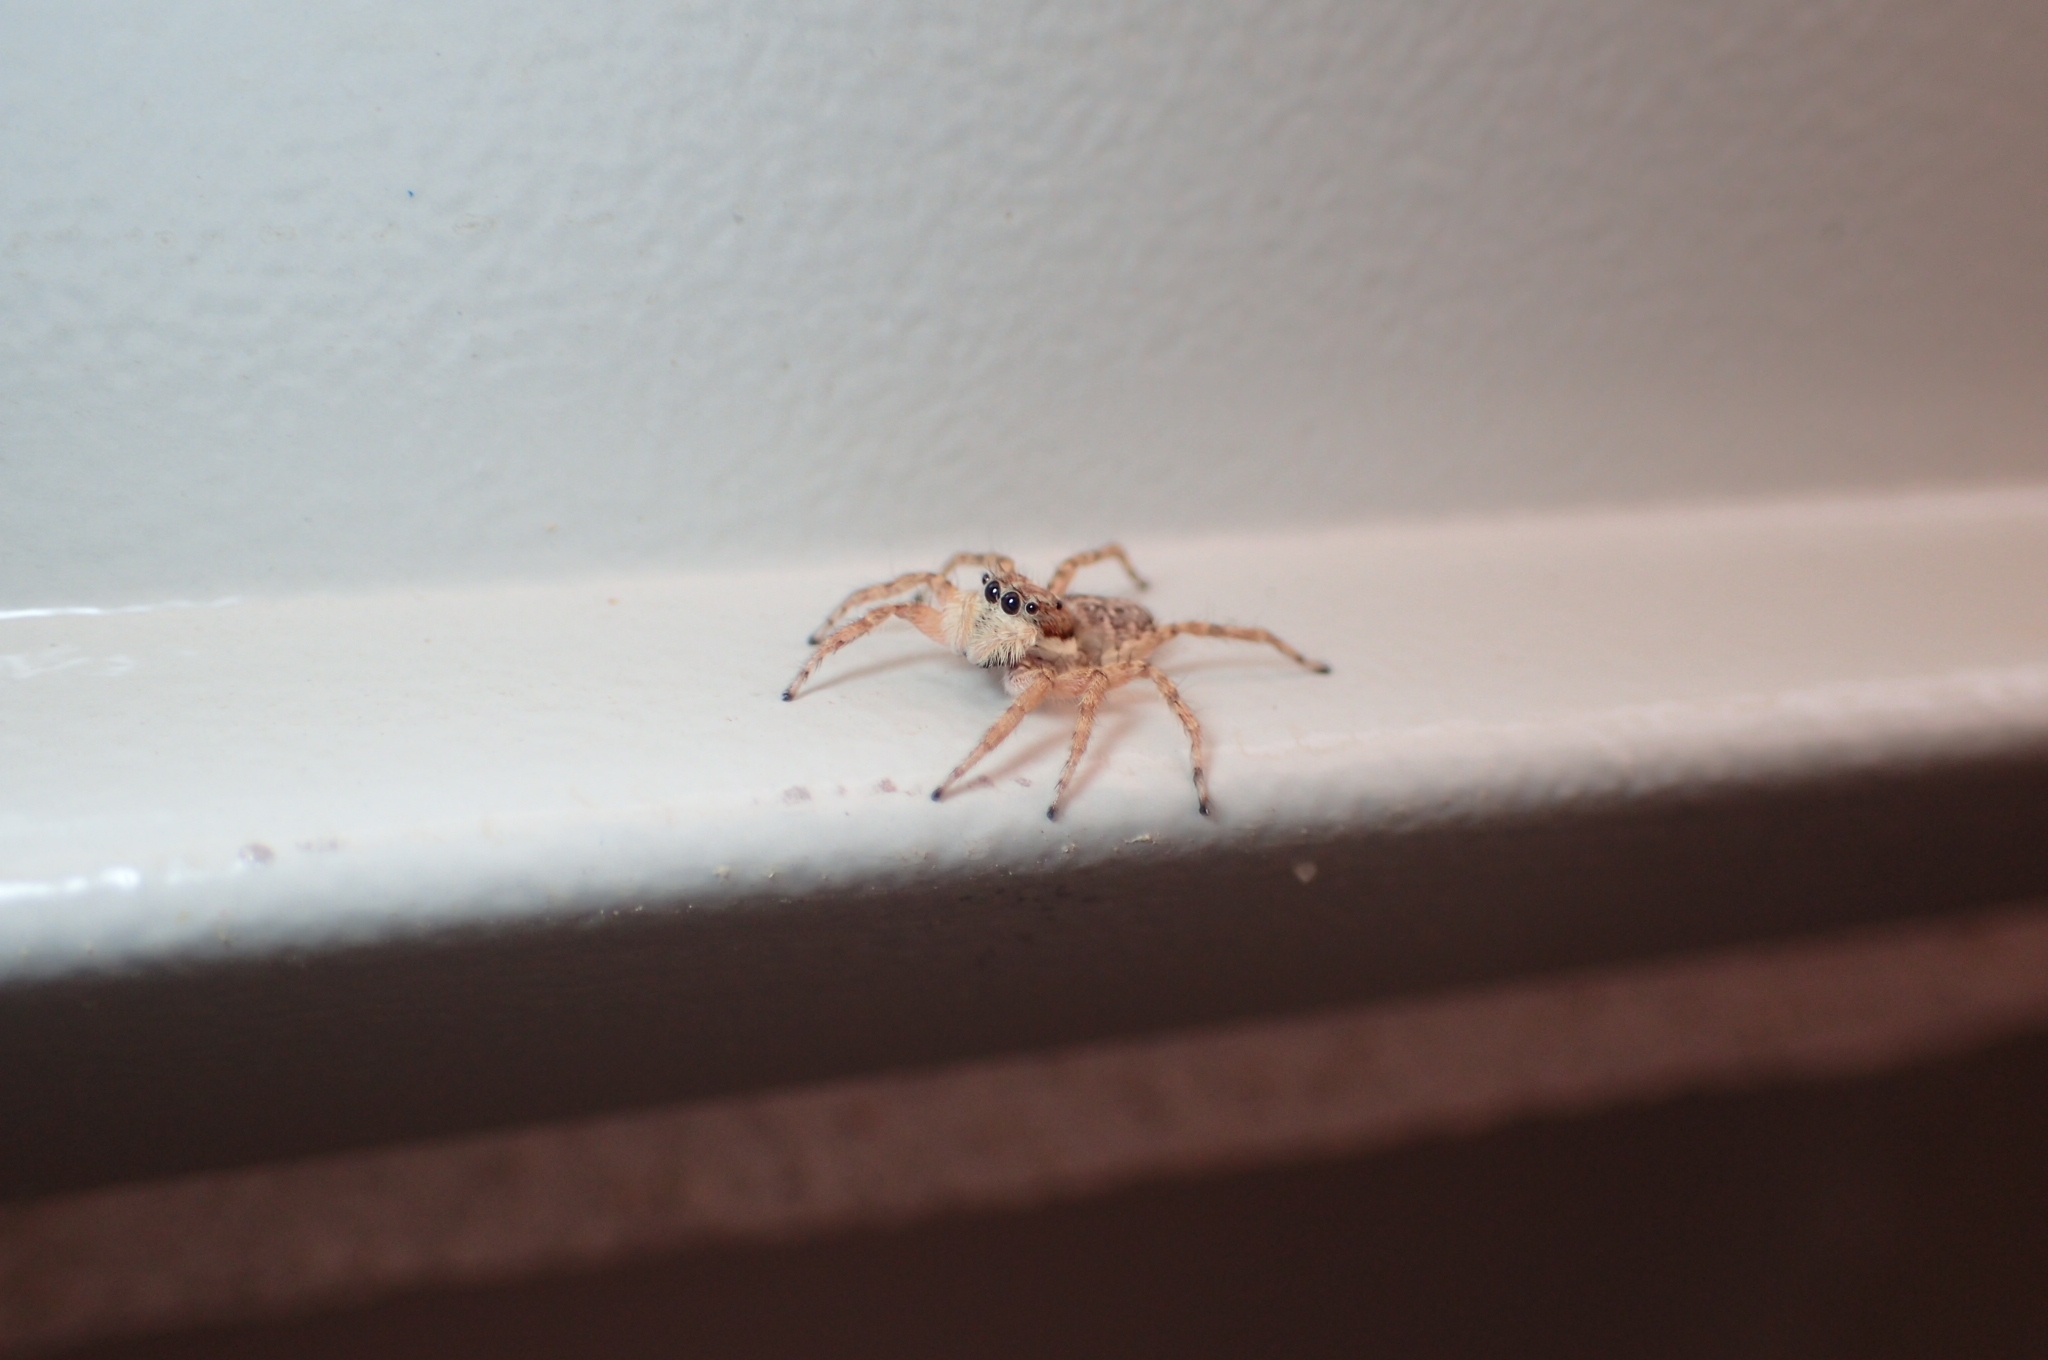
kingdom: Animalia
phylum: Arthropoda
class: Arachnida
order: Araneae
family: Salticidae
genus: Menemerus
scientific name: Menemerus semilimbatus
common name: Jumping spider
